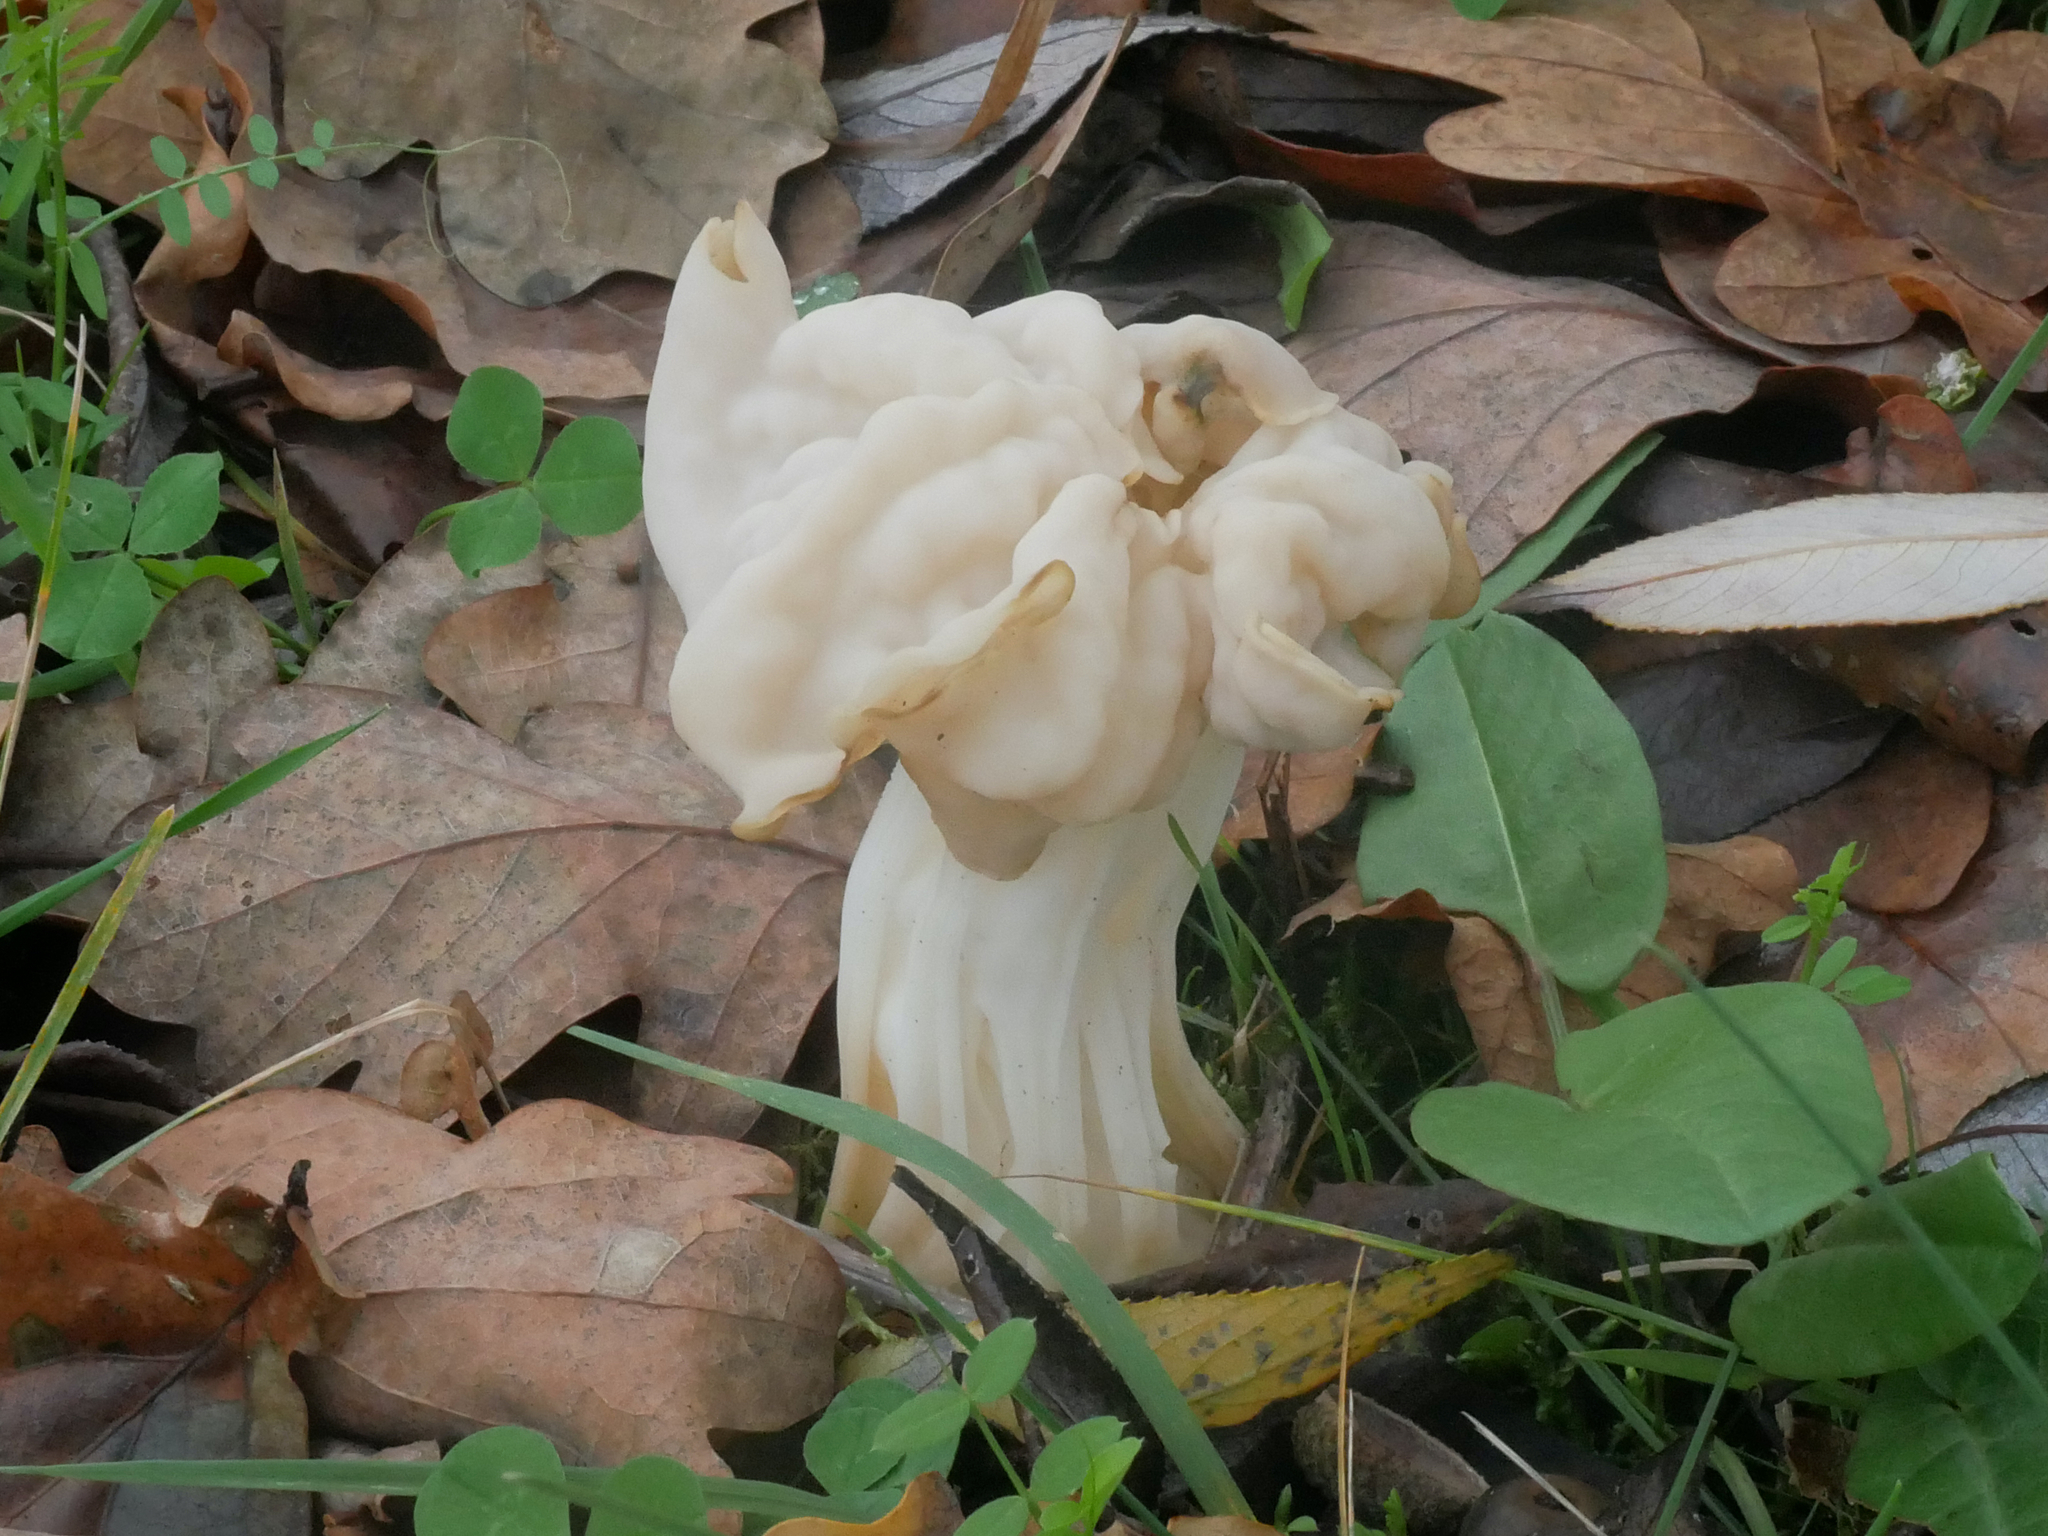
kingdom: Fungi
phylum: Ascomycota
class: Pezizomycetes
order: Pezizales
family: Helvellaceae
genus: Helvella
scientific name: Helvella crispa
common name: White saddle
